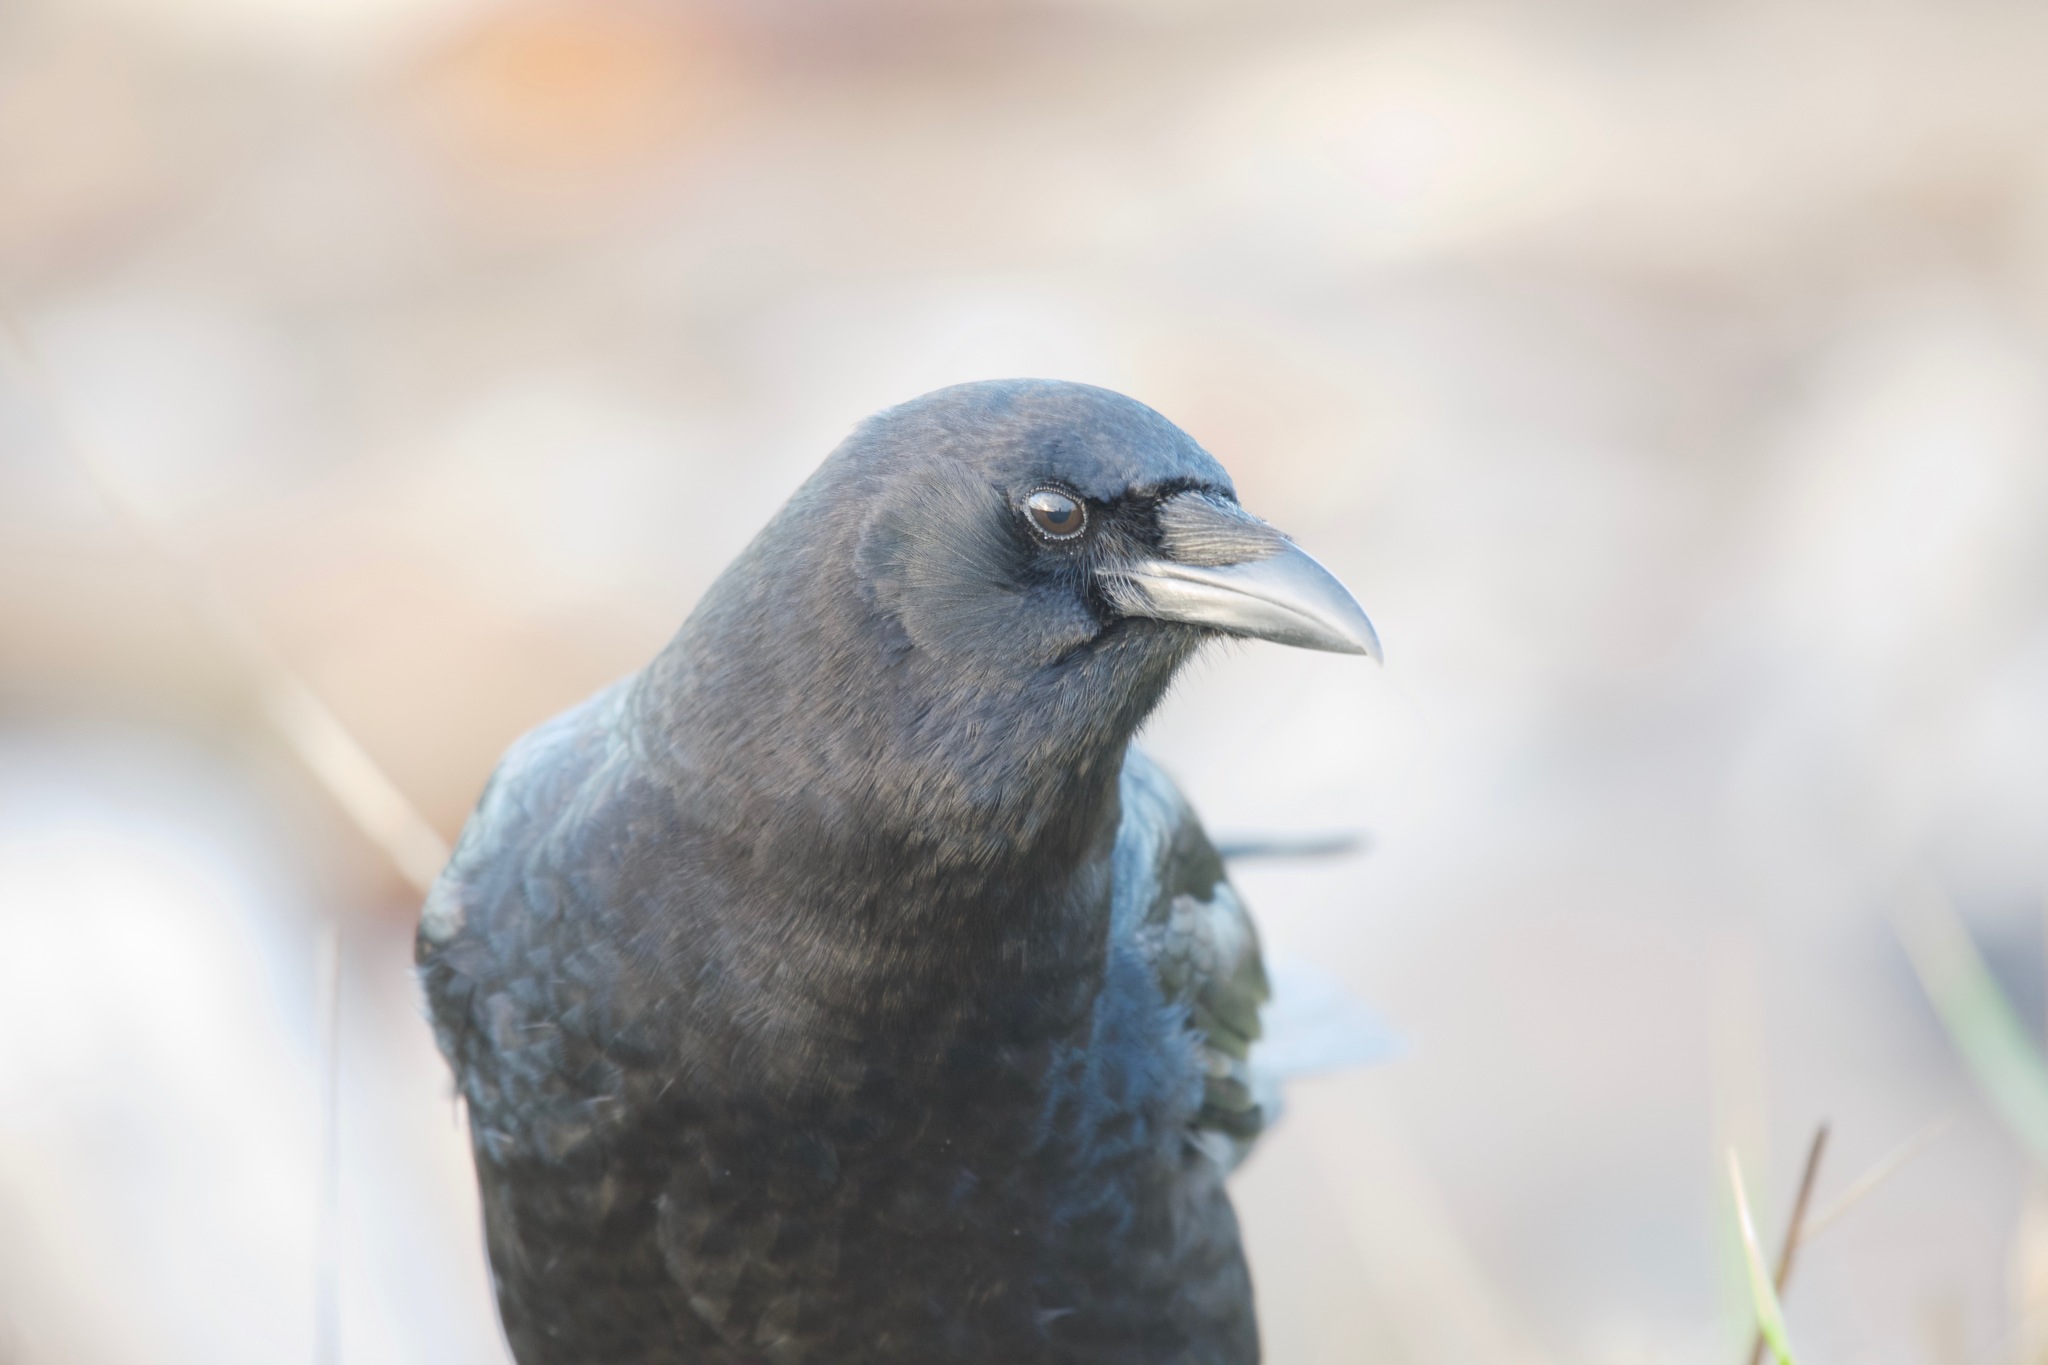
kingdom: Animalia
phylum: Chordata
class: Aves
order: Passeriformes
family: Corvidae
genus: Corvus
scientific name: Corvus brachyrhynchos
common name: American crow
